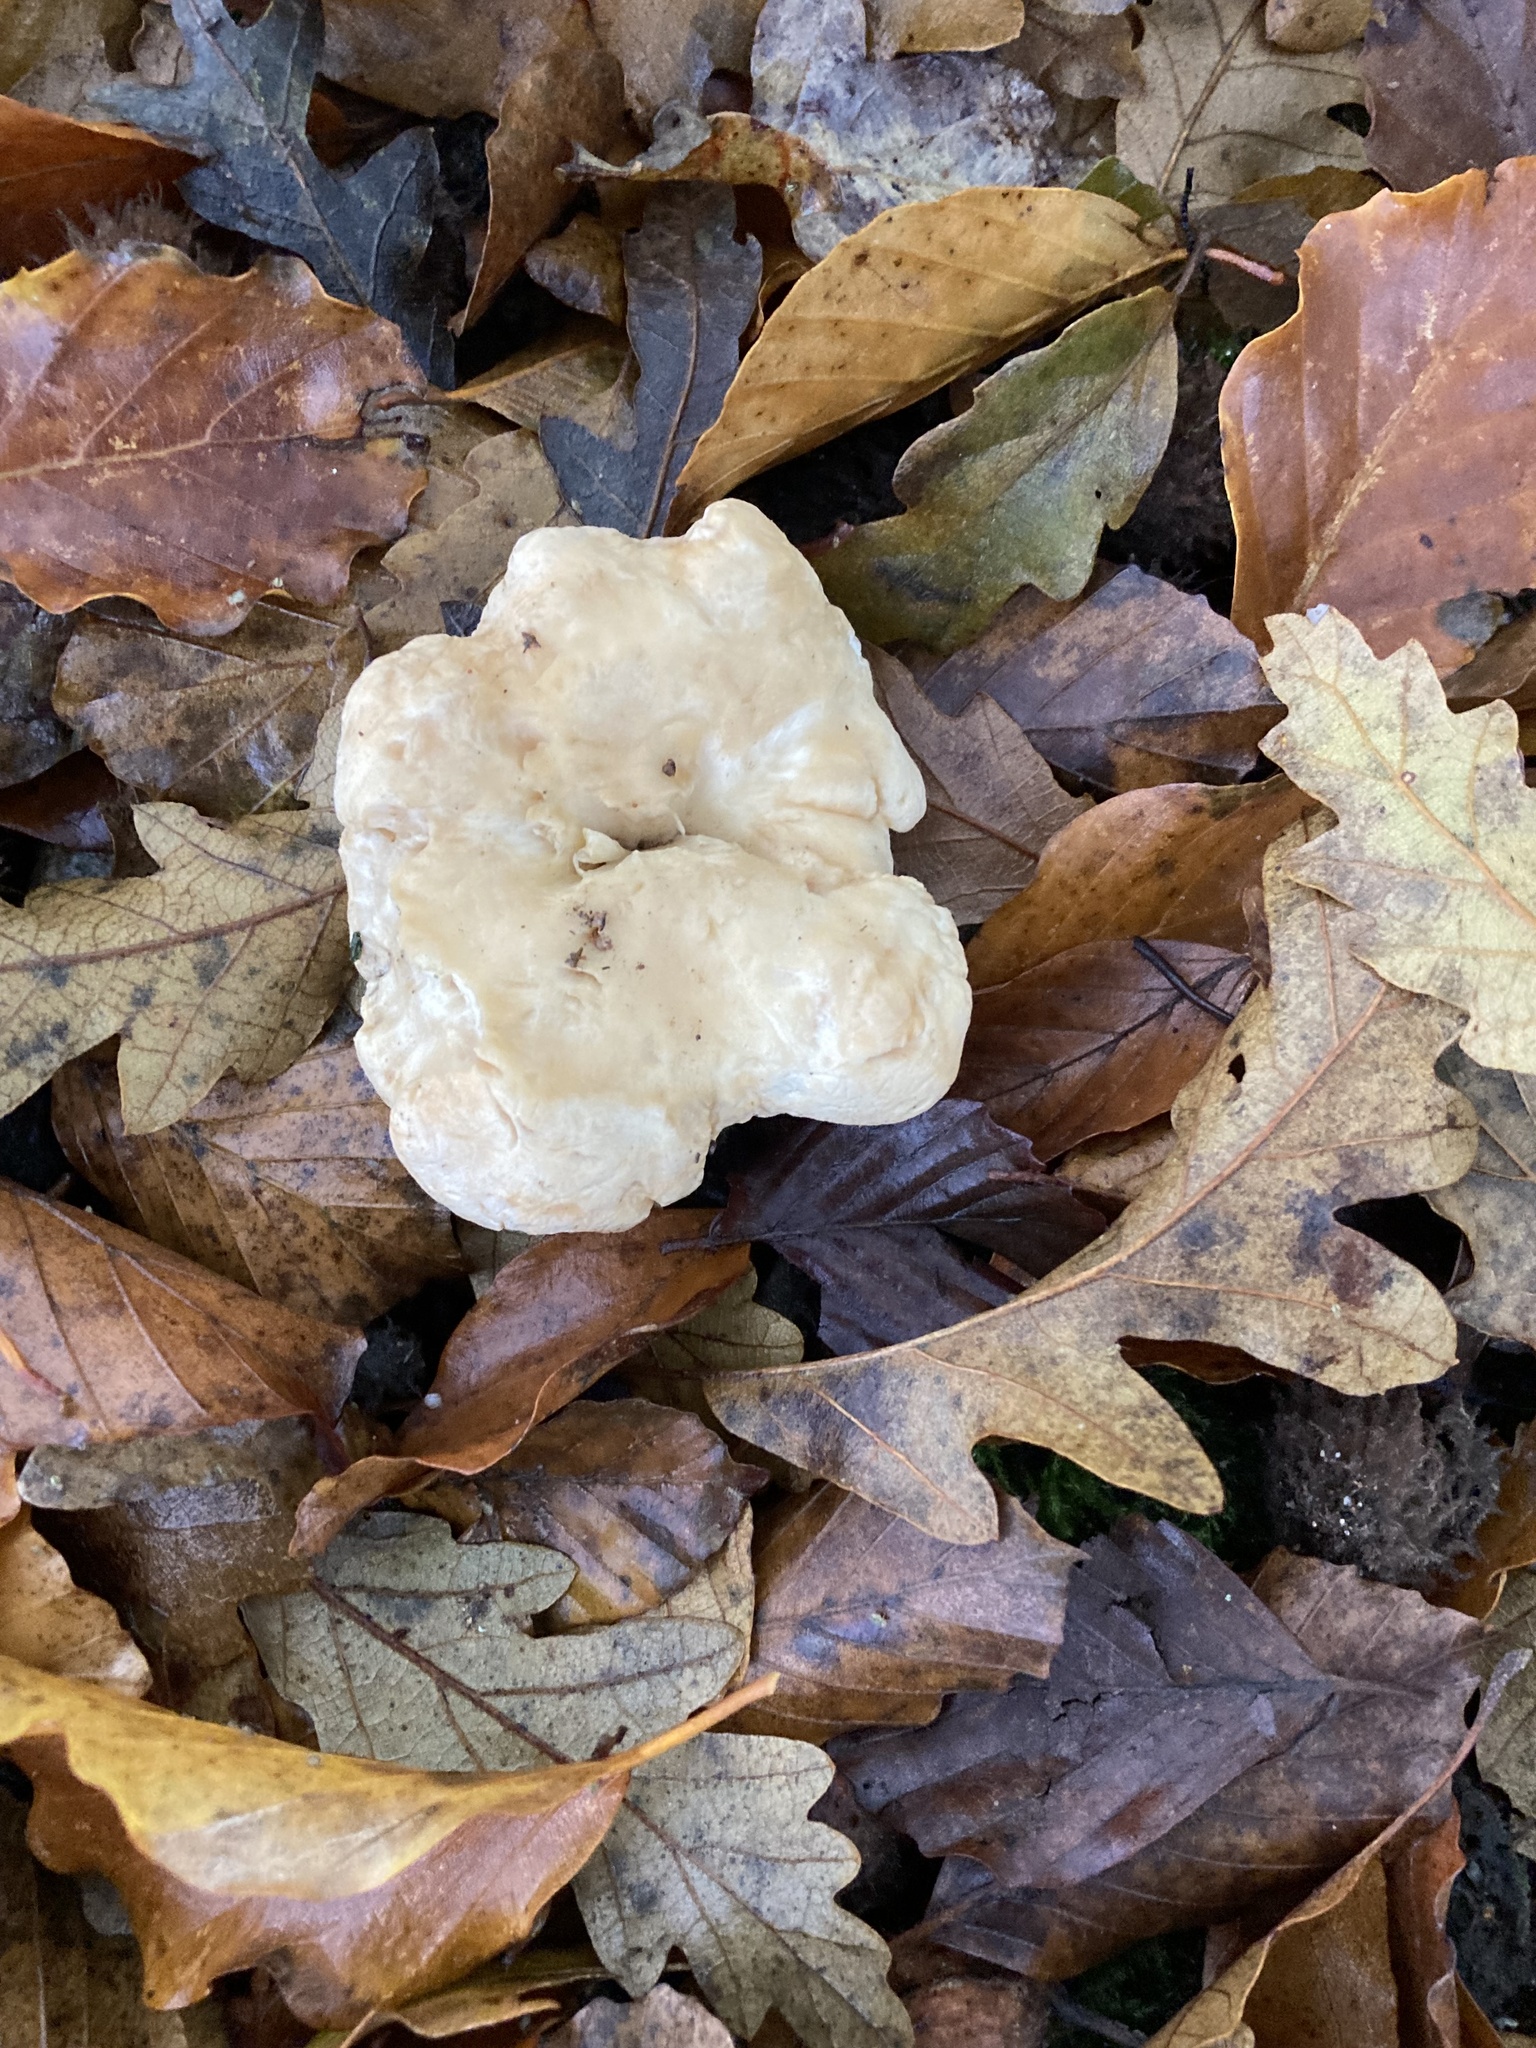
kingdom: Fungi
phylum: Basidiomycota
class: Agaricomycetes
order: Cantharellales
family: Hydnaceae
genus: Hydnum
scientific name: Hydnum repandum
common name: Wood hedgehog
